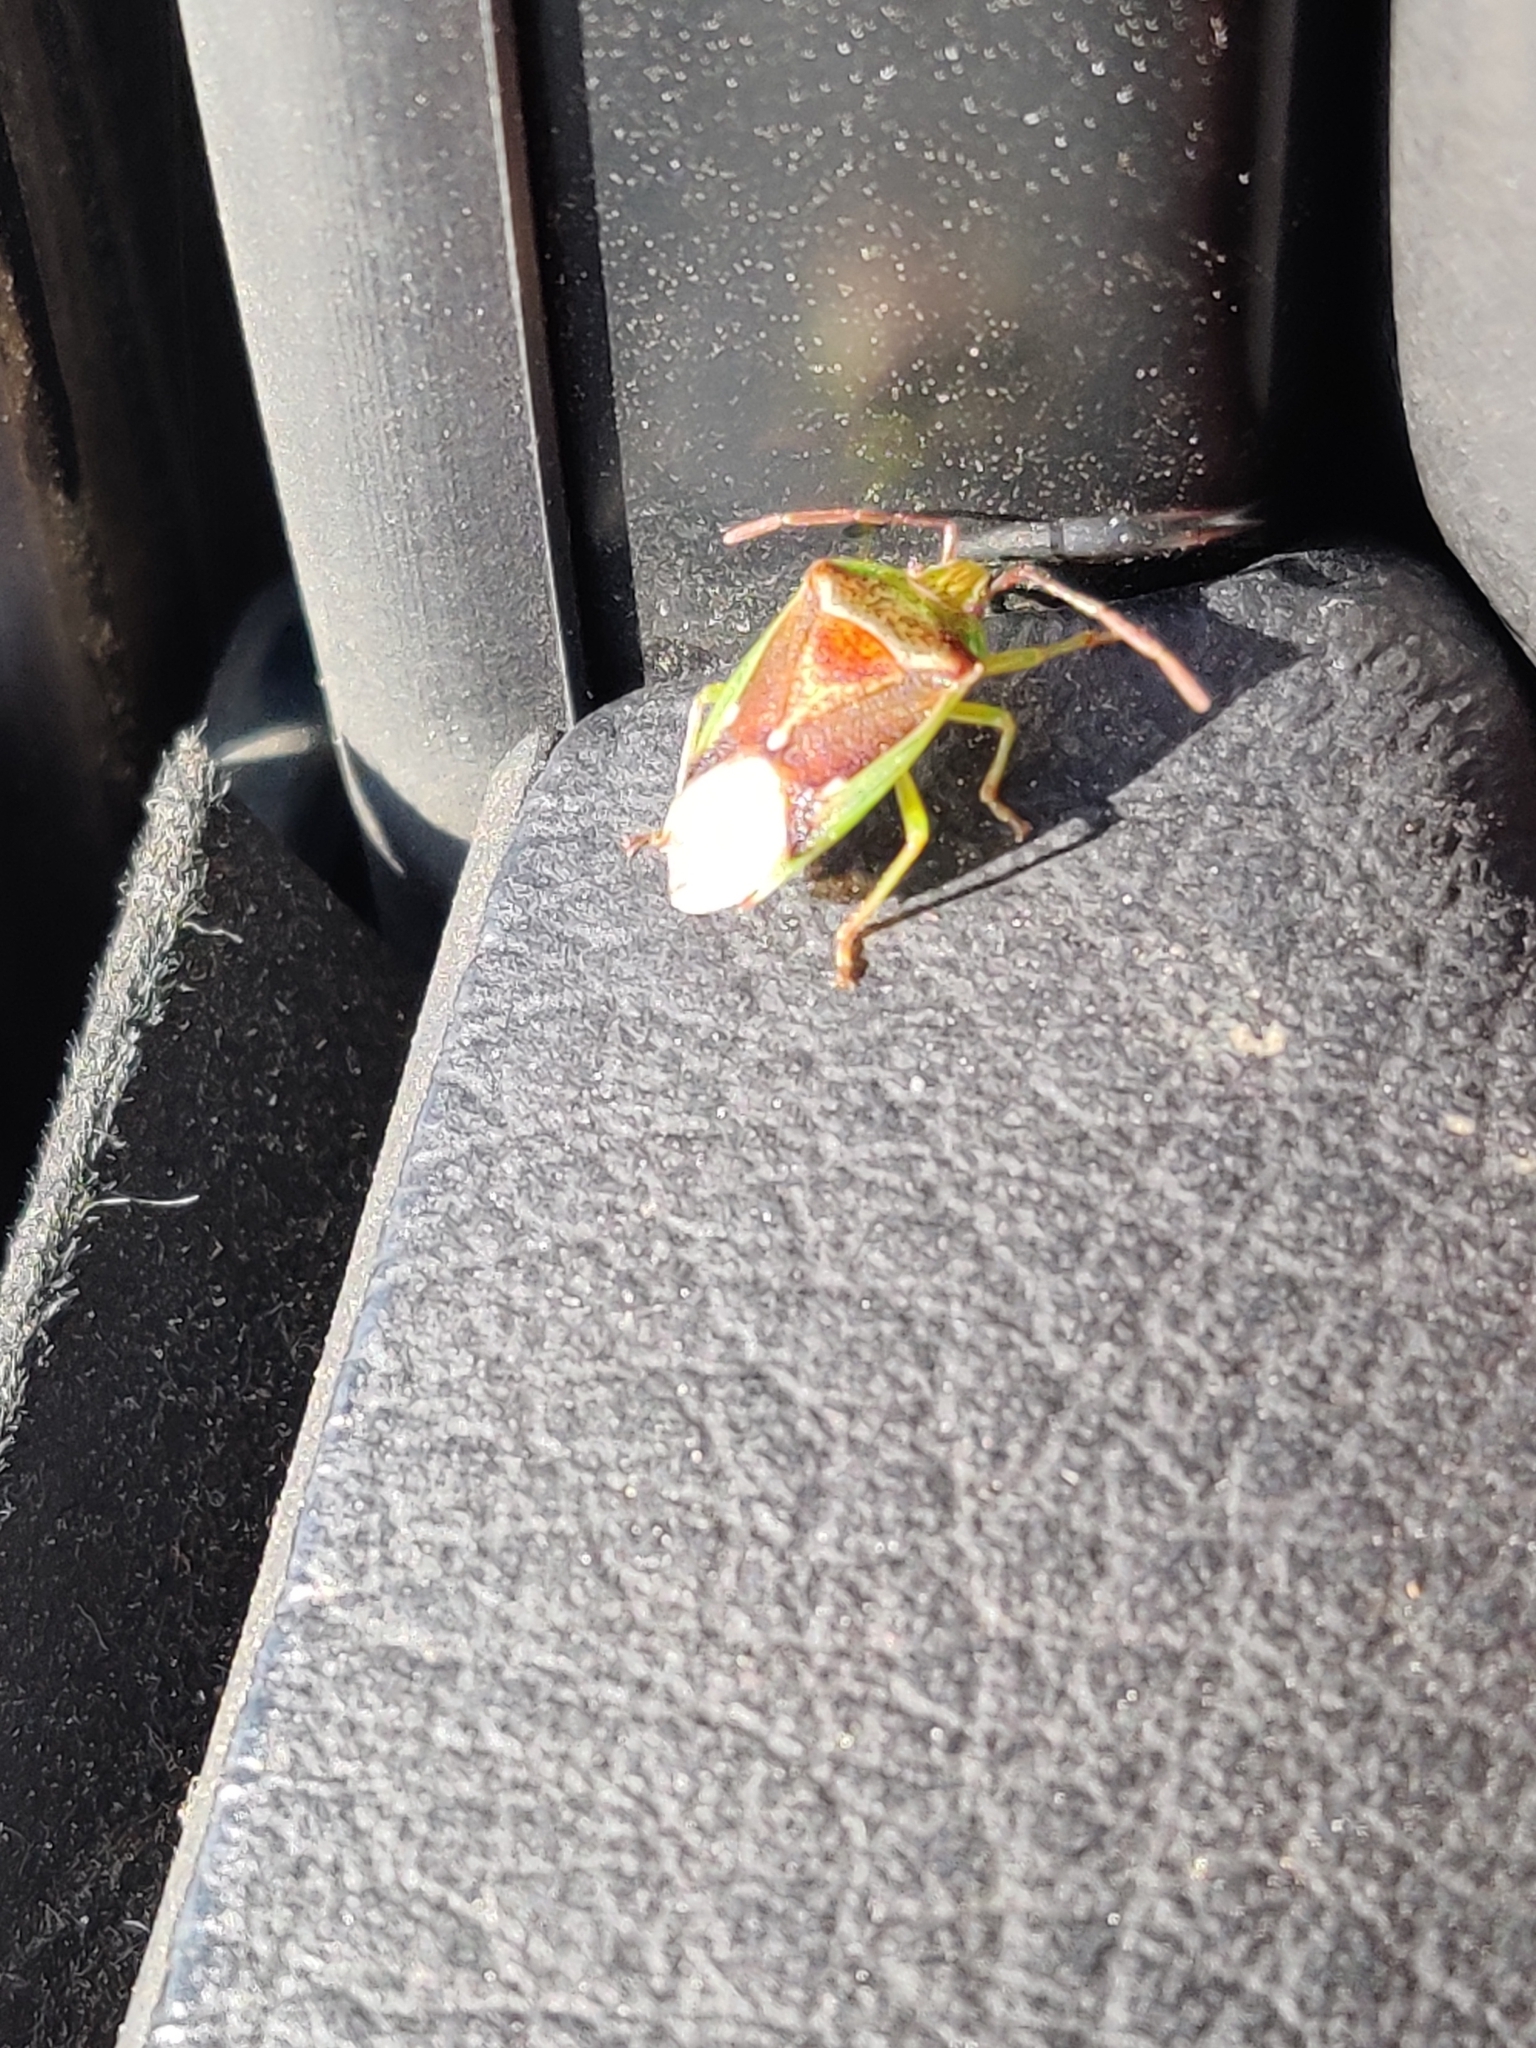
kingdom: Animalia
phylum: Arthropoda
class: Insecta
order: Hemiptera
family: Acanthosomatidae
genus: Oncacontias
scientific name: Oncacontias vittatus
